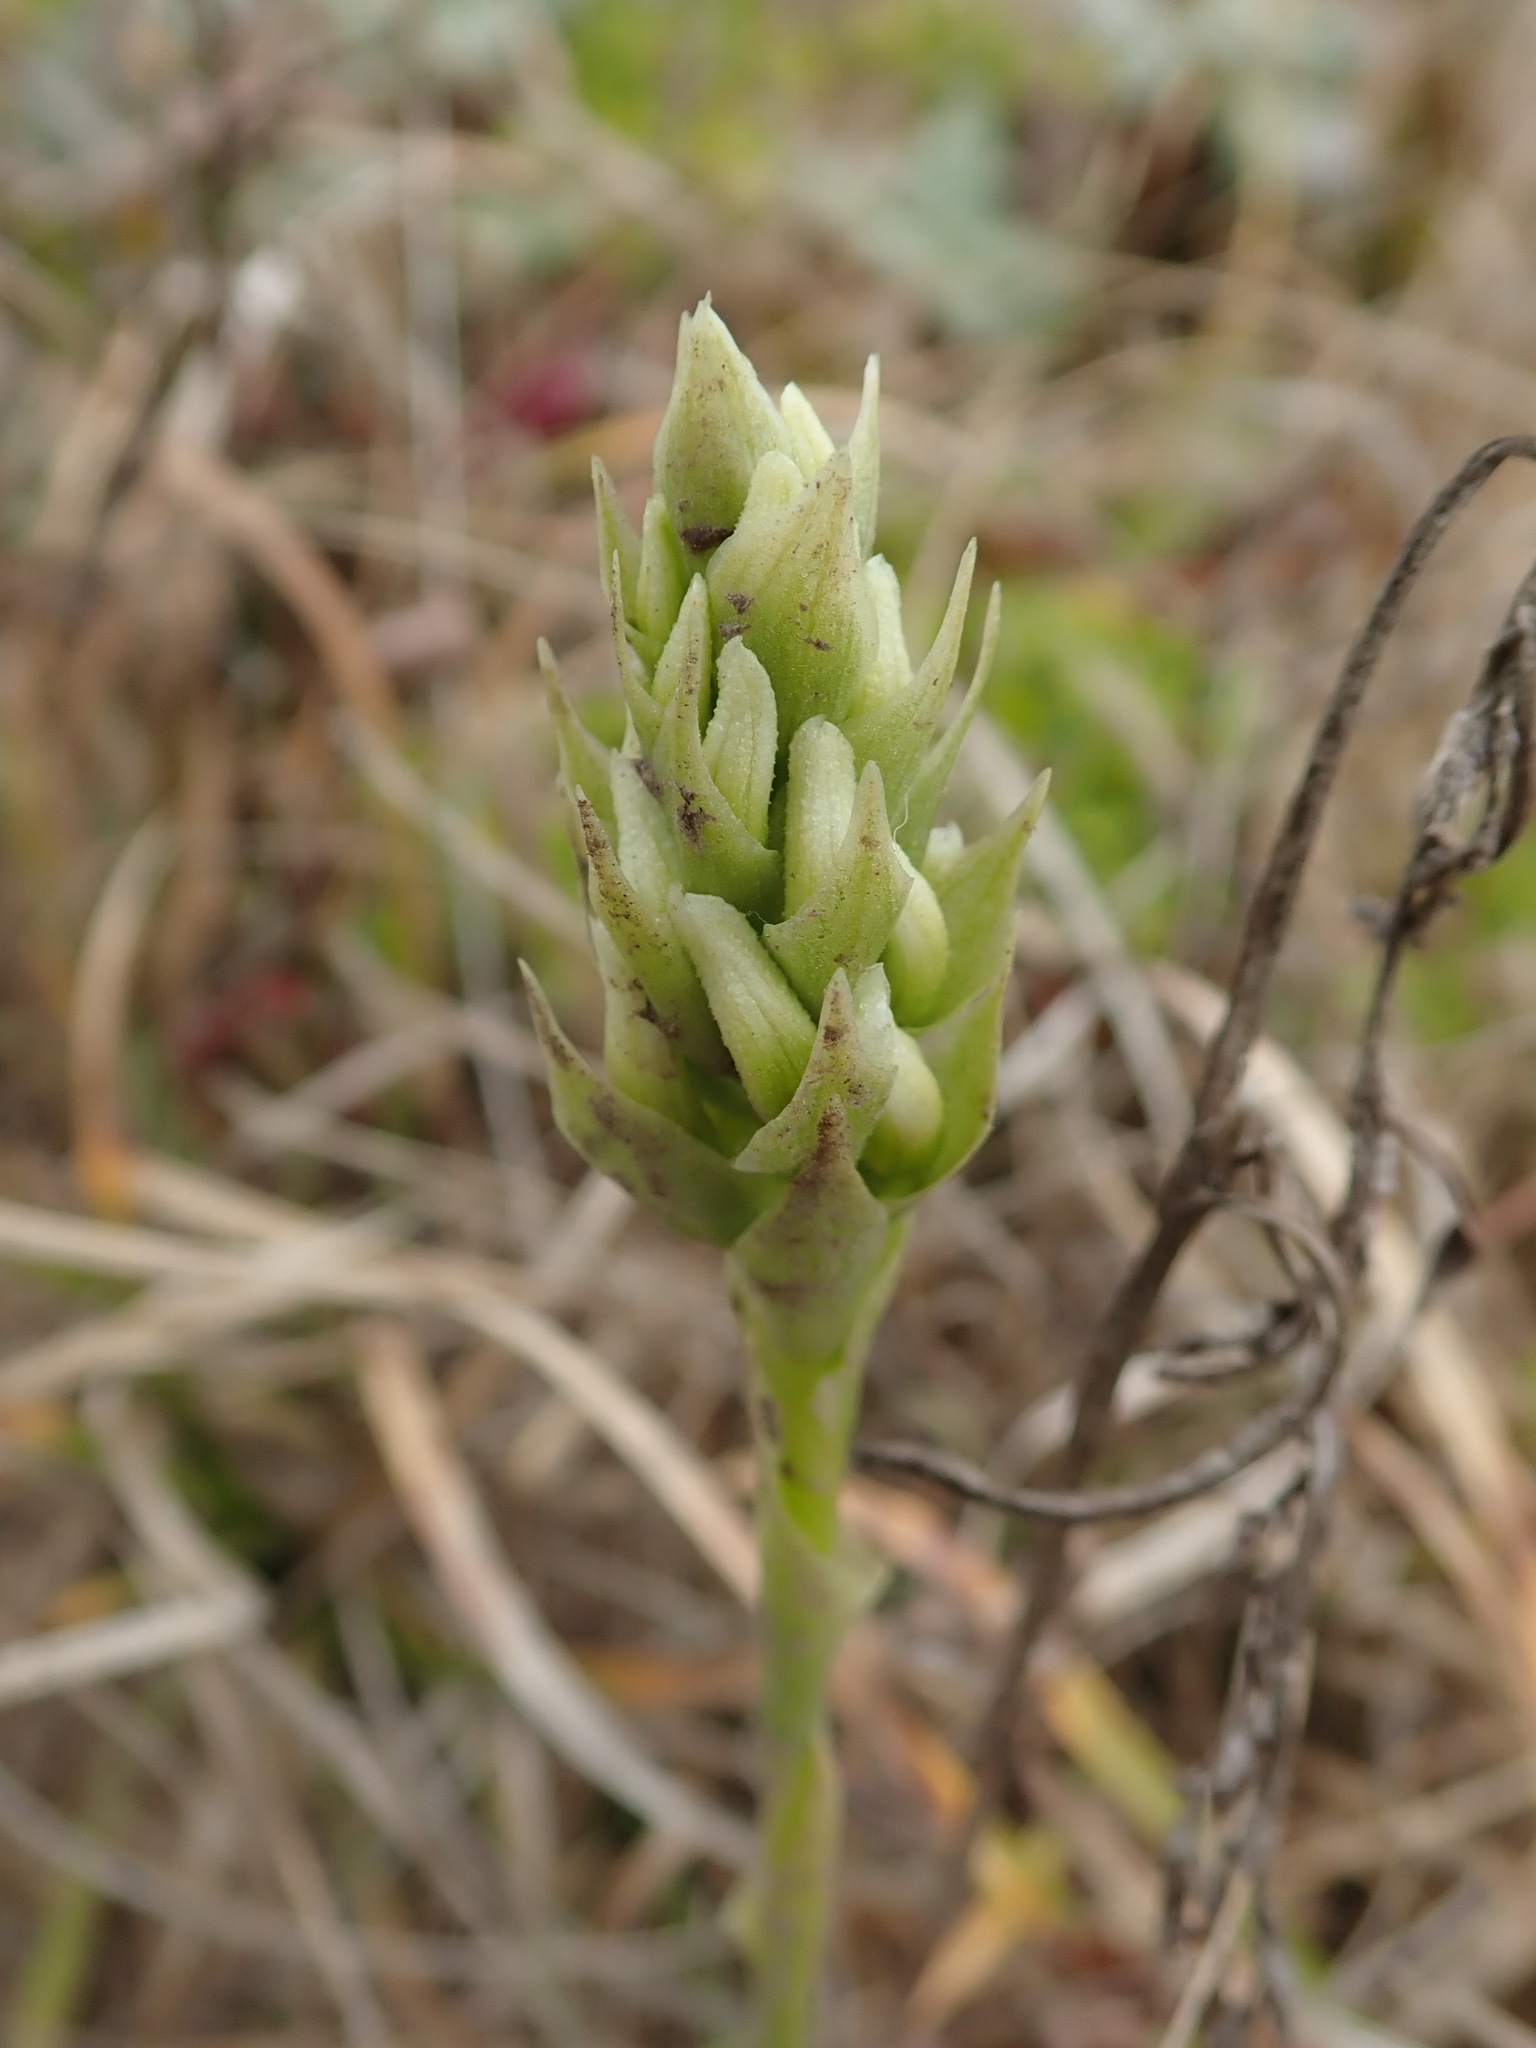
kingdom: Plantae
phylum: Tracheophyta
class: Liliopsida
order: Asparagales
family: Orchidaceae
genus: Spiranthes
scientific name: Spiranthes romanzoffiana
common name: Irish lady's-tresses
